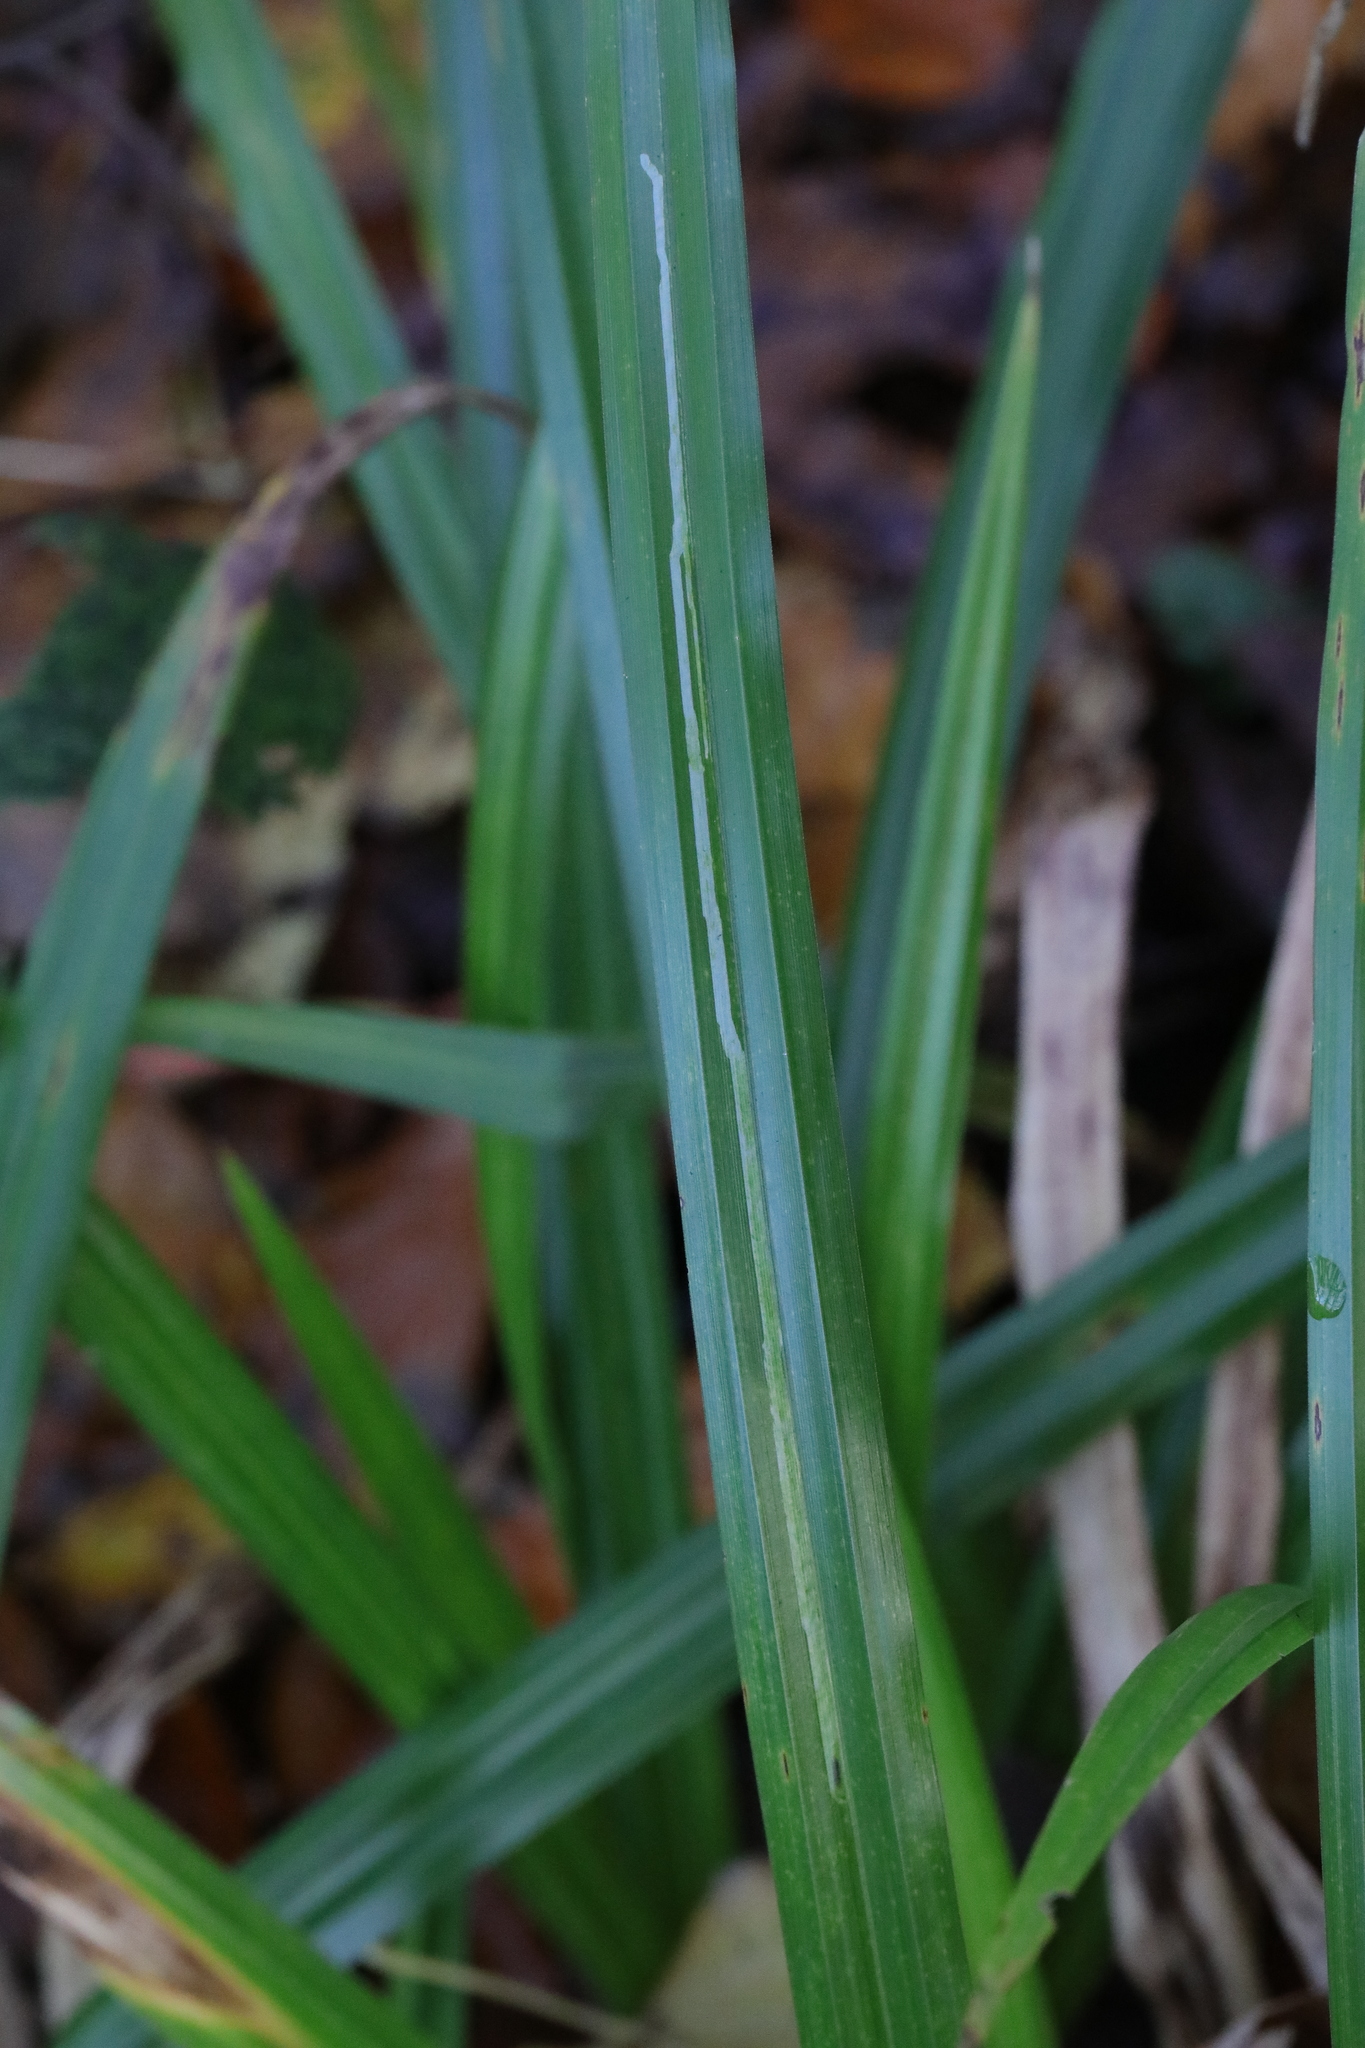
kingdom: Plantae
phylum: Tracheophyta
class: Liliopsida
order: Poales
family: Cyperaceae
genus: Carex
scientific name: Carex pendula
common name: Pendulous sedge
